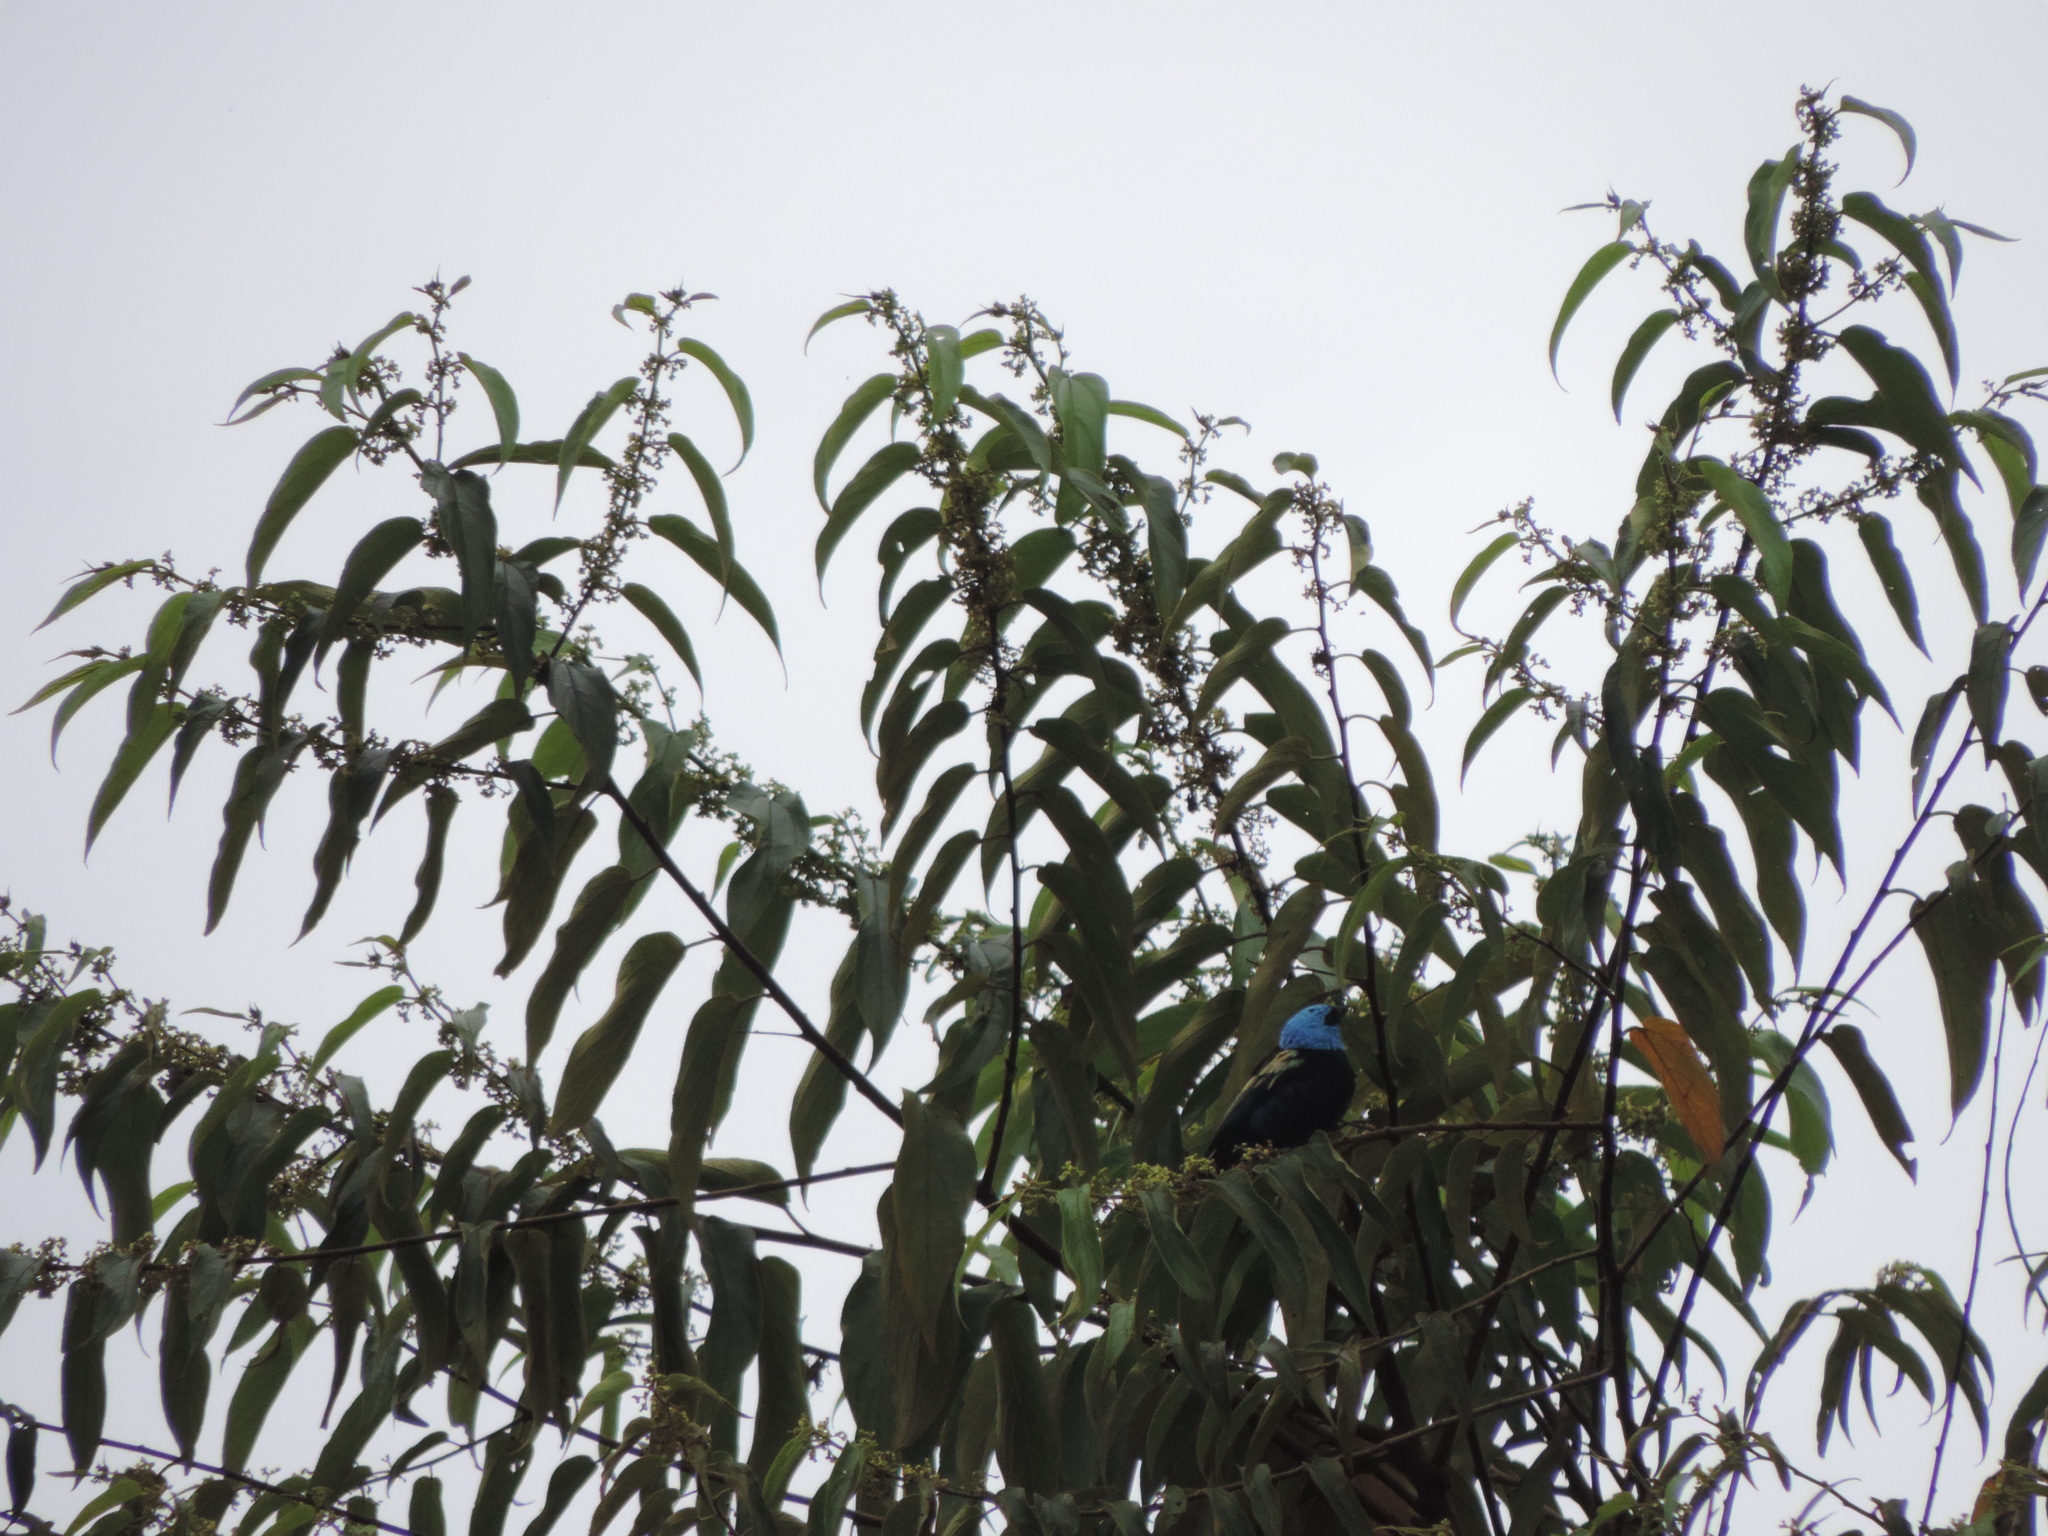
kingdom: Animalia
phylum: Chordata
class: Aves
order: Passeriformes
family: Thraupidae
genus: Stilpnia
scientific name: Stilpnia cyanicollis
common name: Blue-necked tanager
